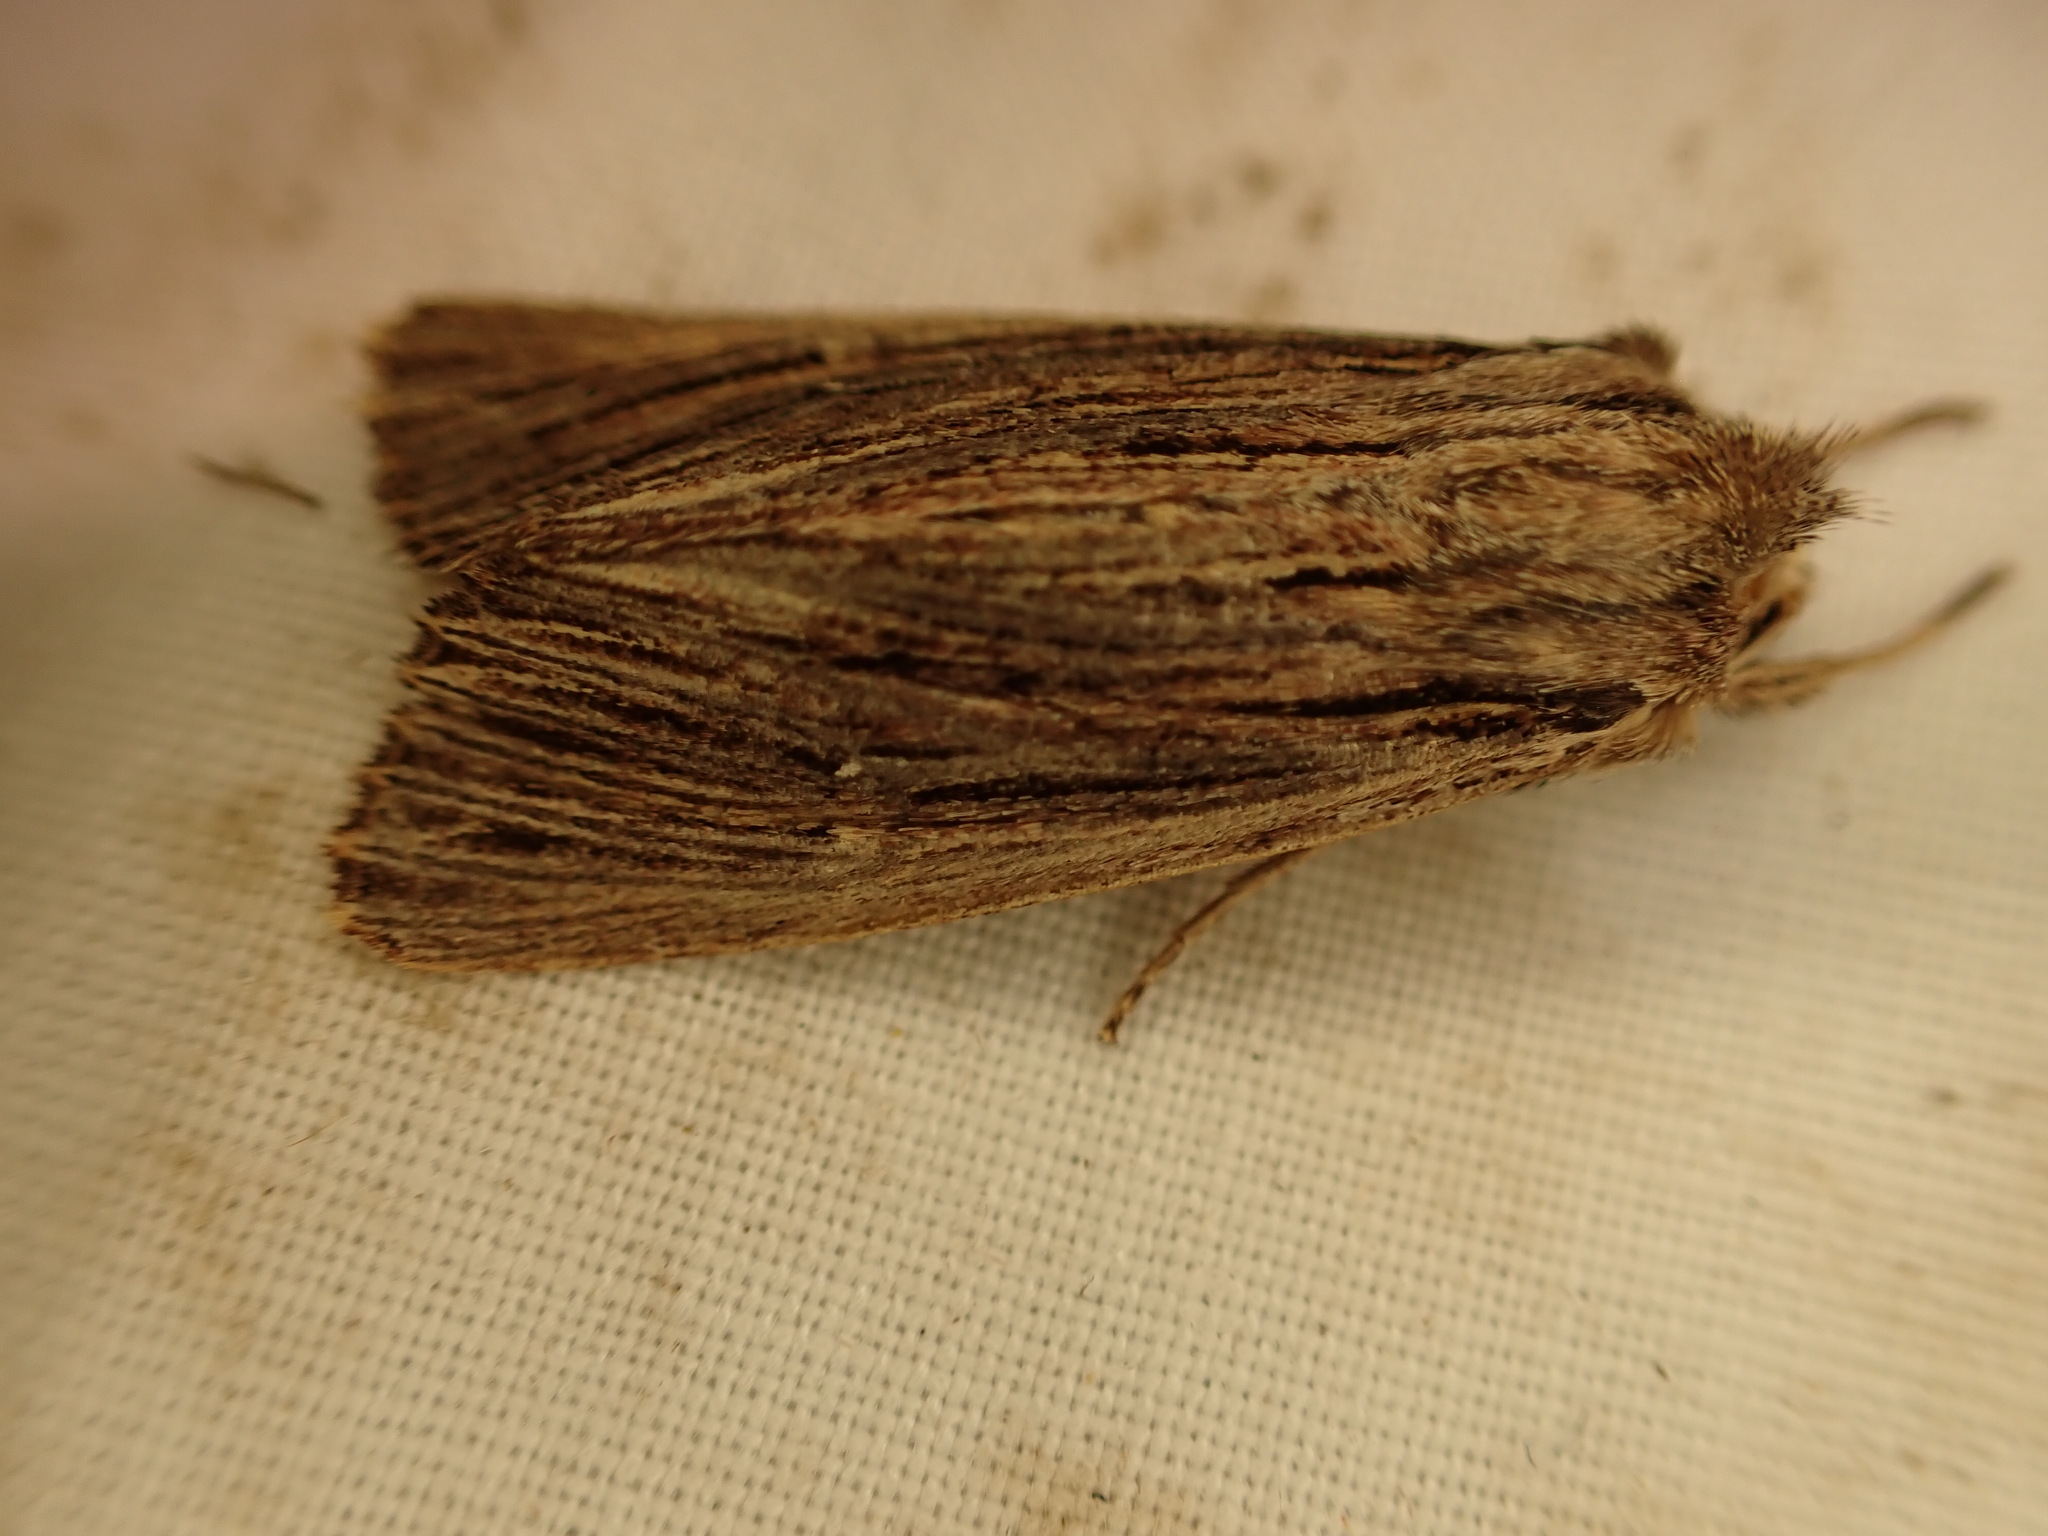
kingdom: Animalia
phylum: Arthropoda
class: Insecta
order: Lepidoptera
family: Noctuidae
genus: Ichneutica
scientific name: Ichneutica
